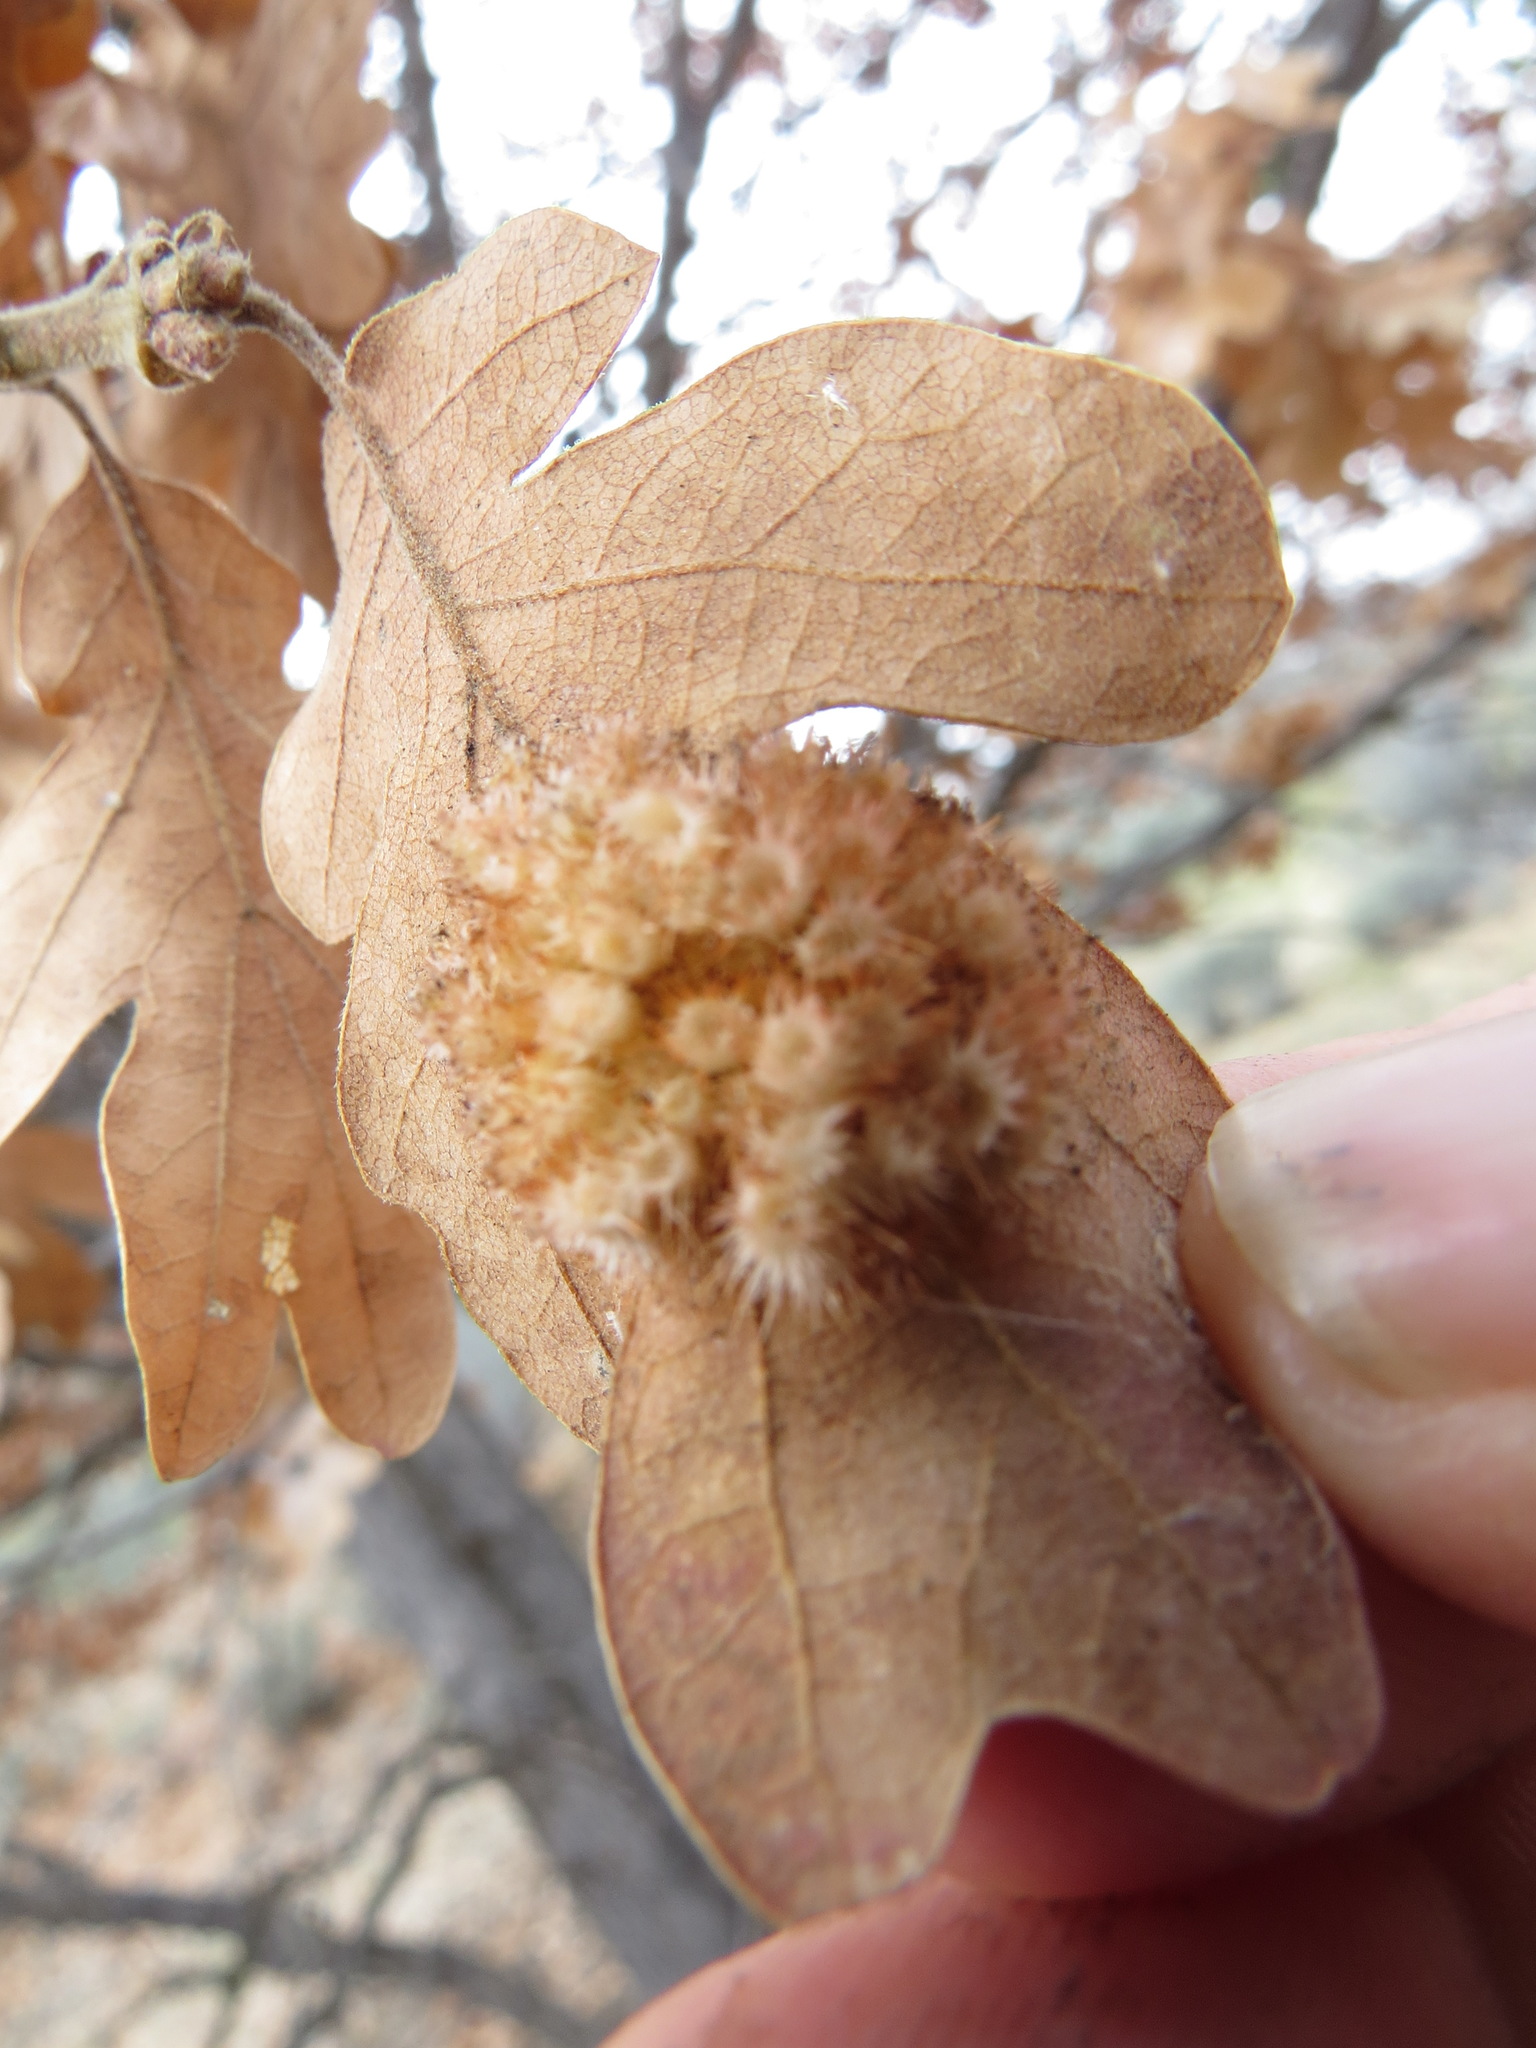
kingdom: Animalia
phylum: Arthropoda
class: Insecta
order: Hymenoptera
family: Cynipidae
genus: Andricus
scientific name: Andricus
